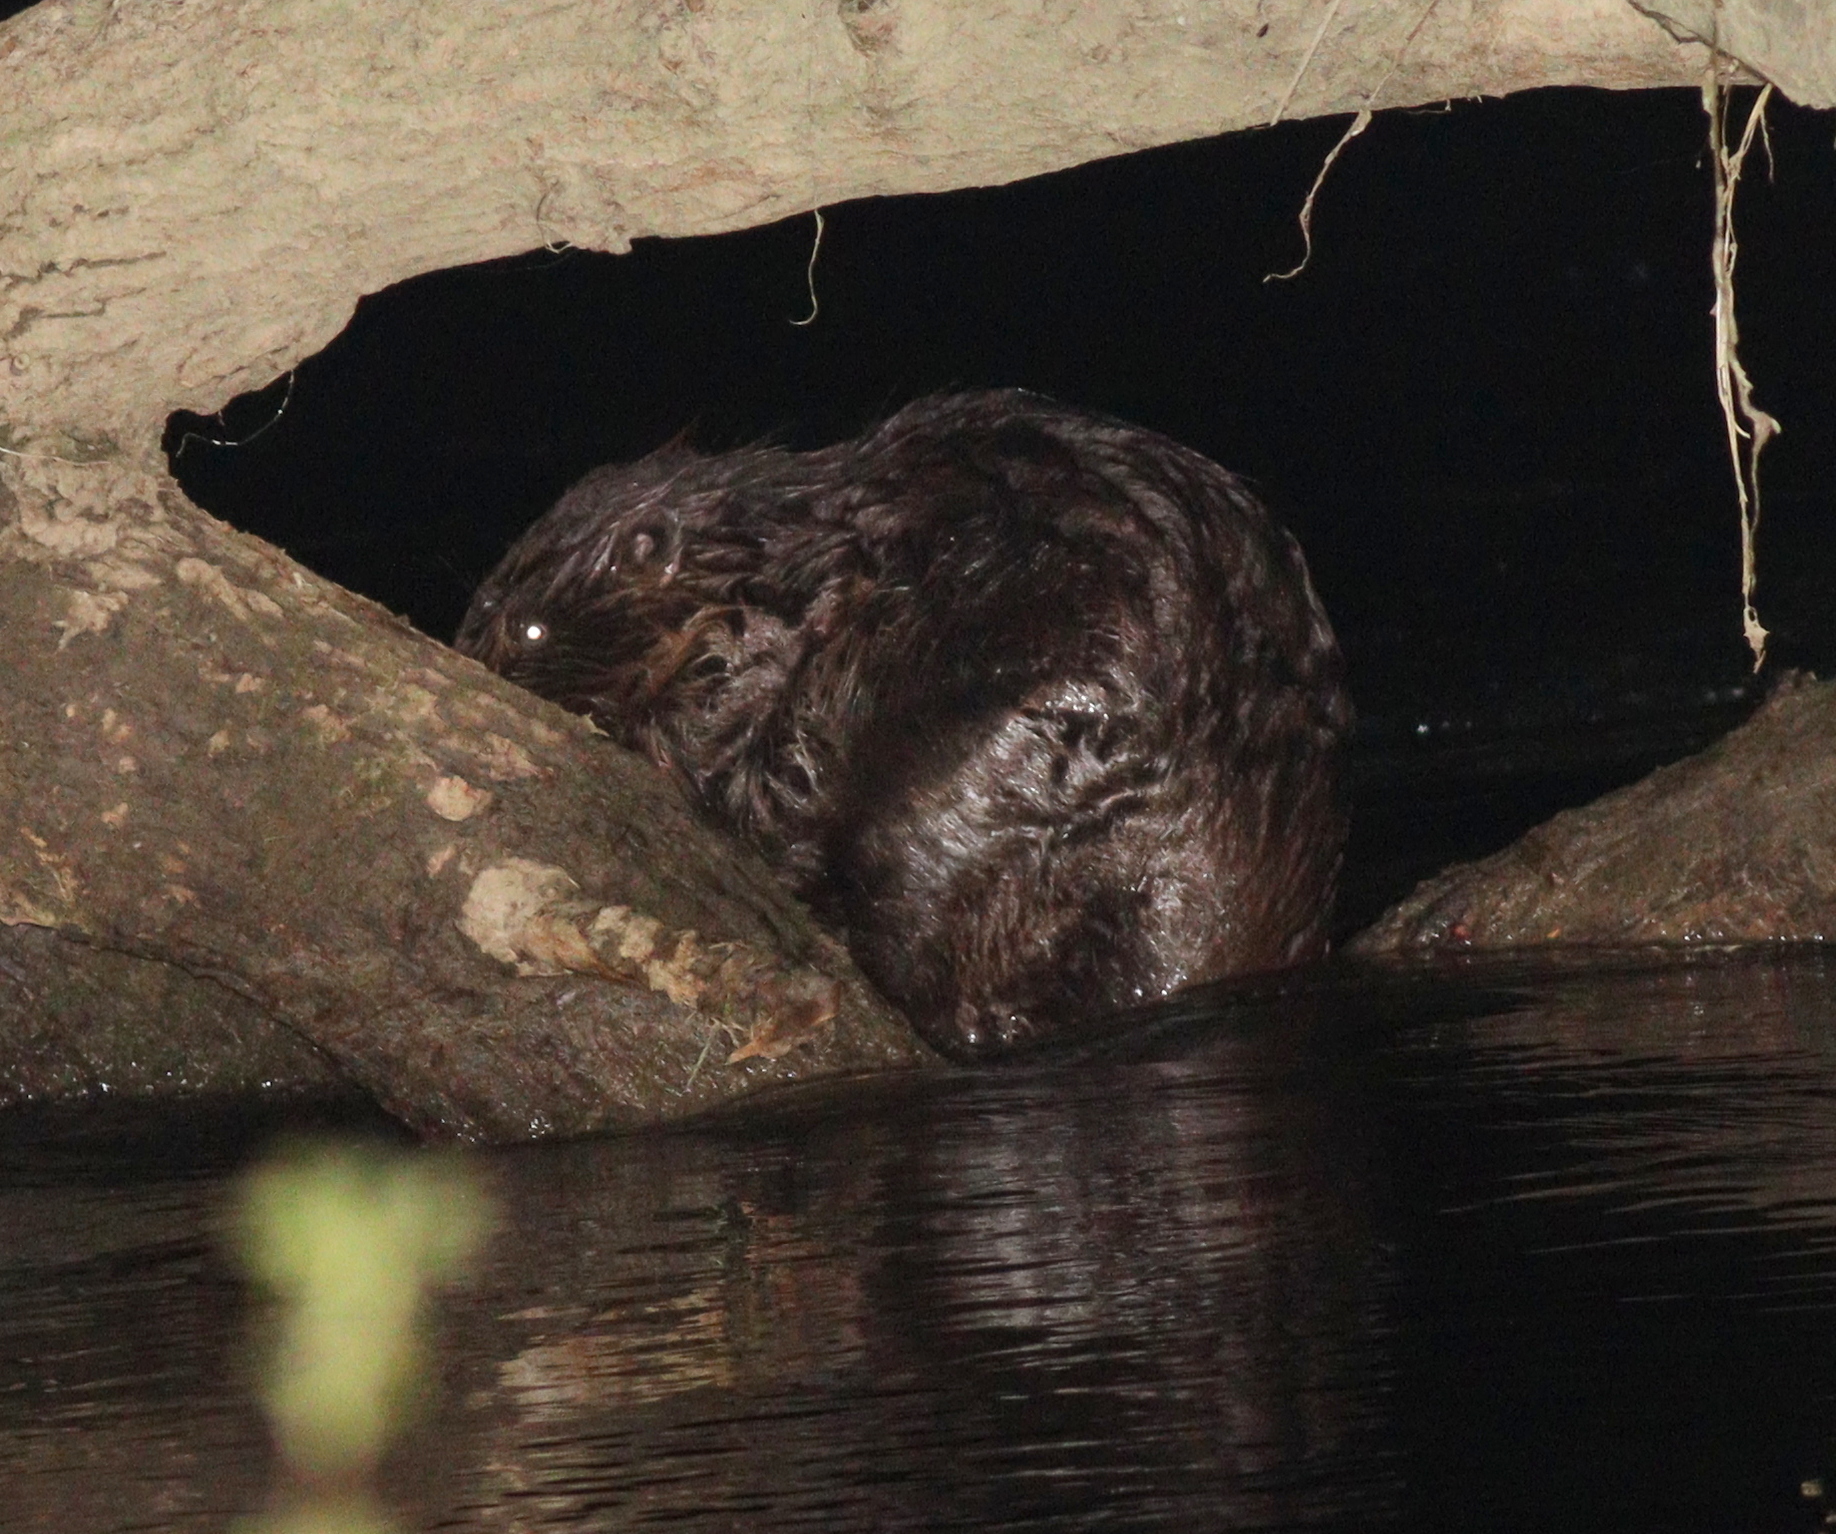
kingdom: Animalia
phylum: Chordata
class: Mammalia
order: Rodentia
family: Castoridae
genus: Castor
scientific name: Castor fiber
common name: Eurasian beaver
